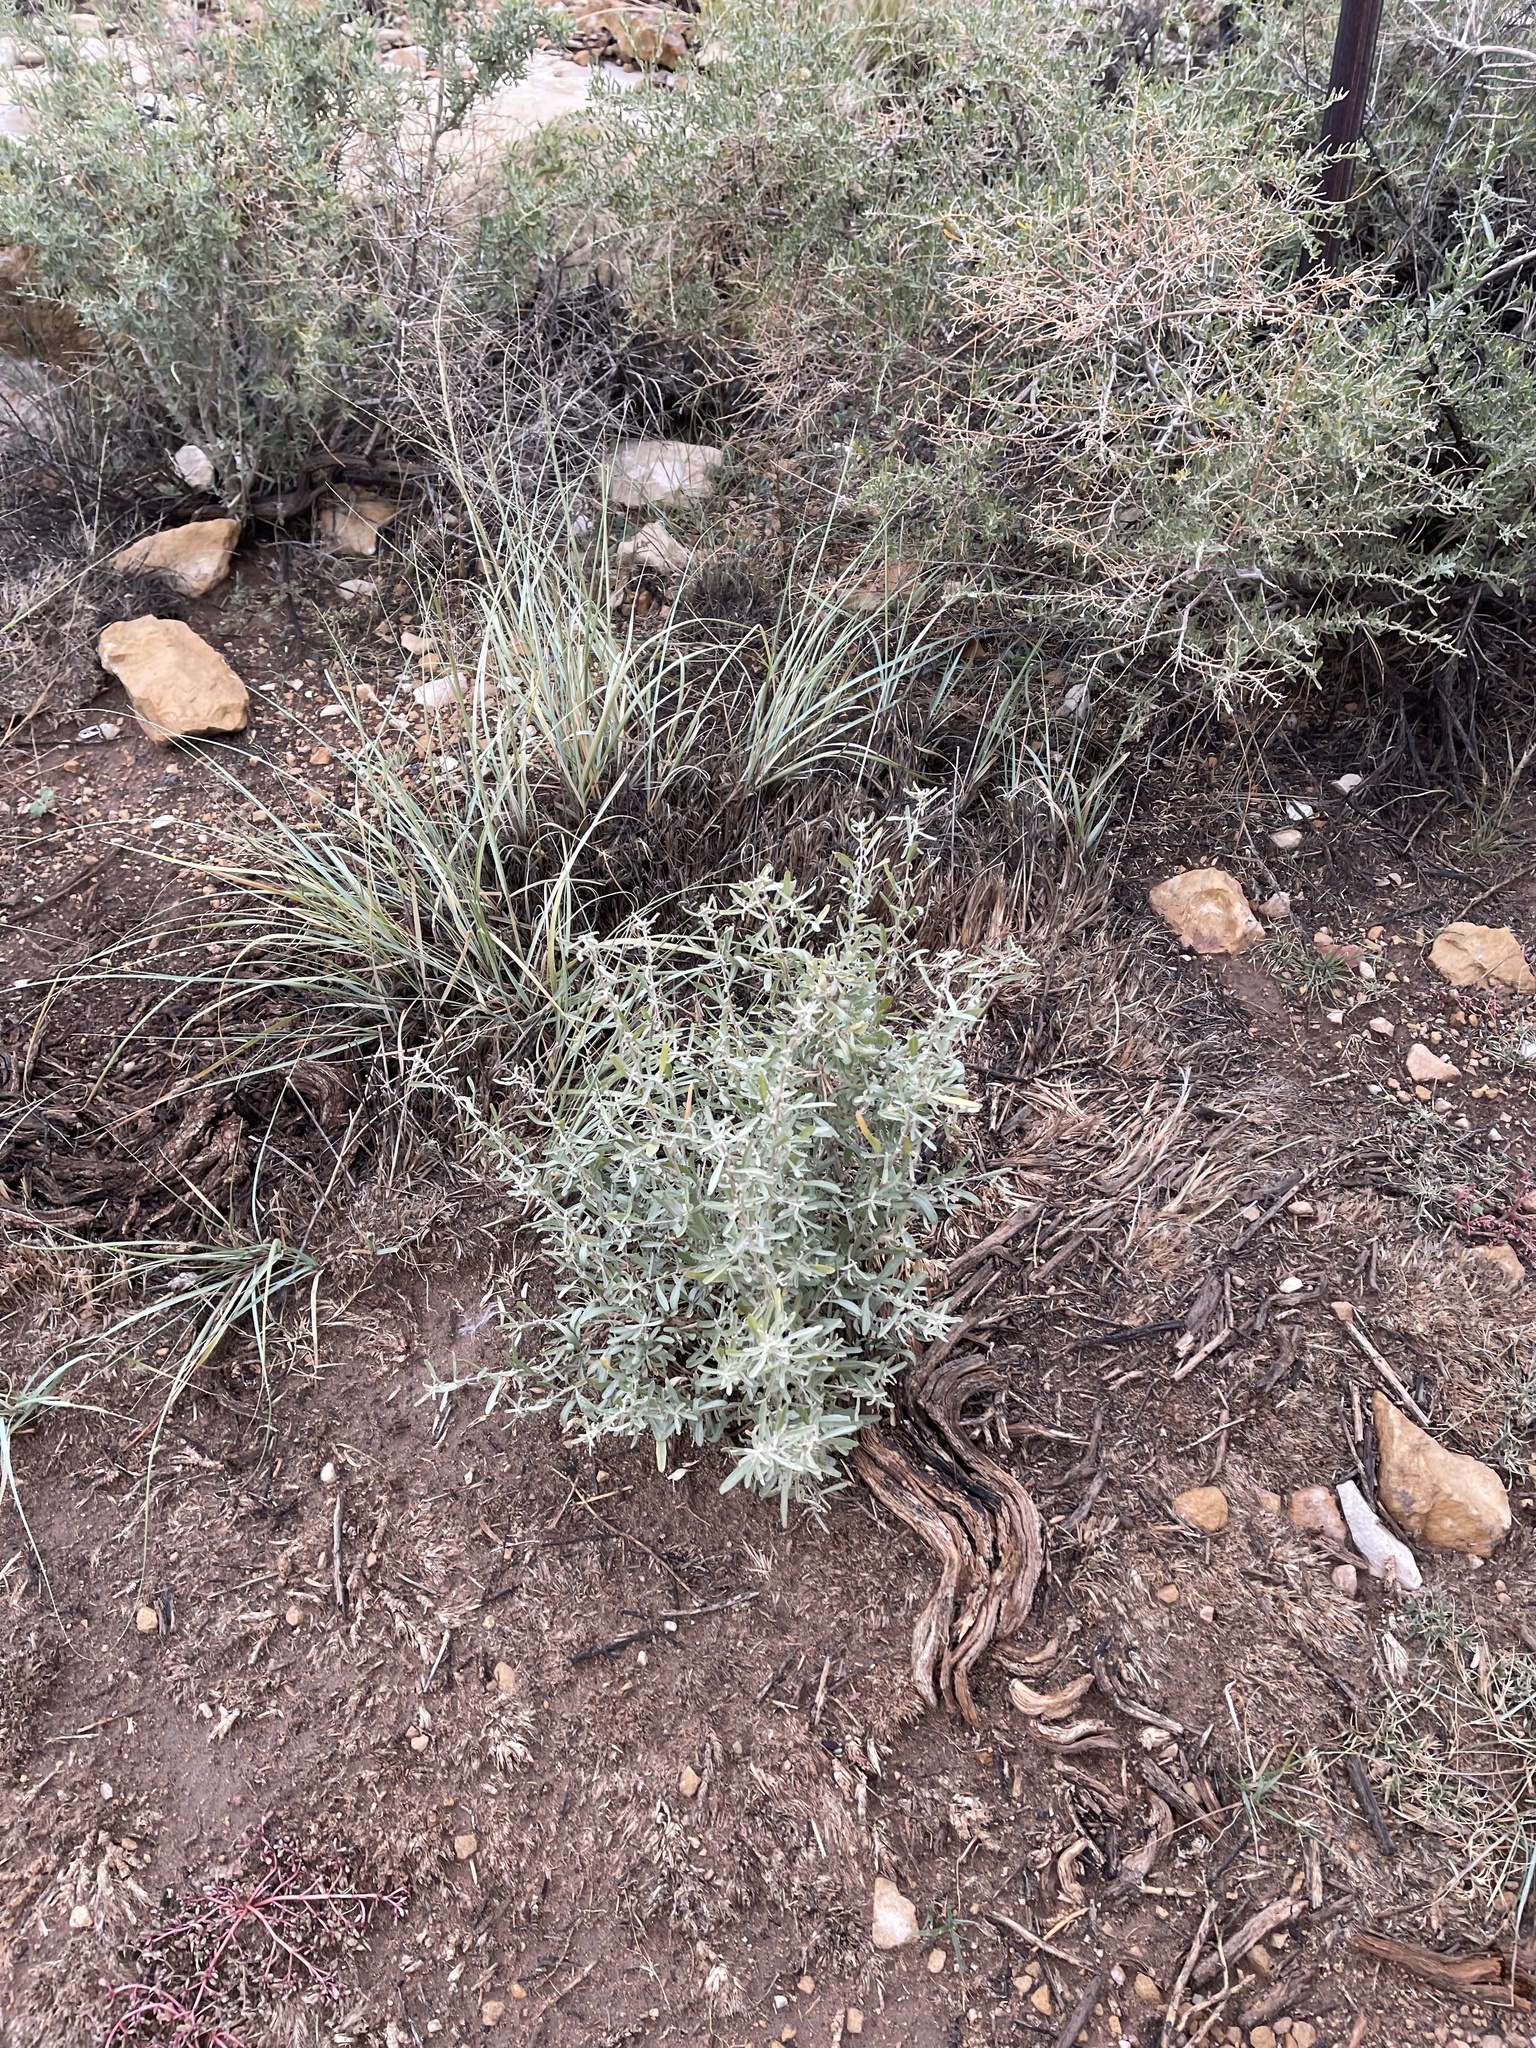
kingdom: Plantae
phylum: Tracheophyta
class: Magnoliopsida
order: Caryophyllales
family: Amaranthaceae
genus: Atriplex
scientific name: Atriplex canescens
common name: Four-wing saltbush
